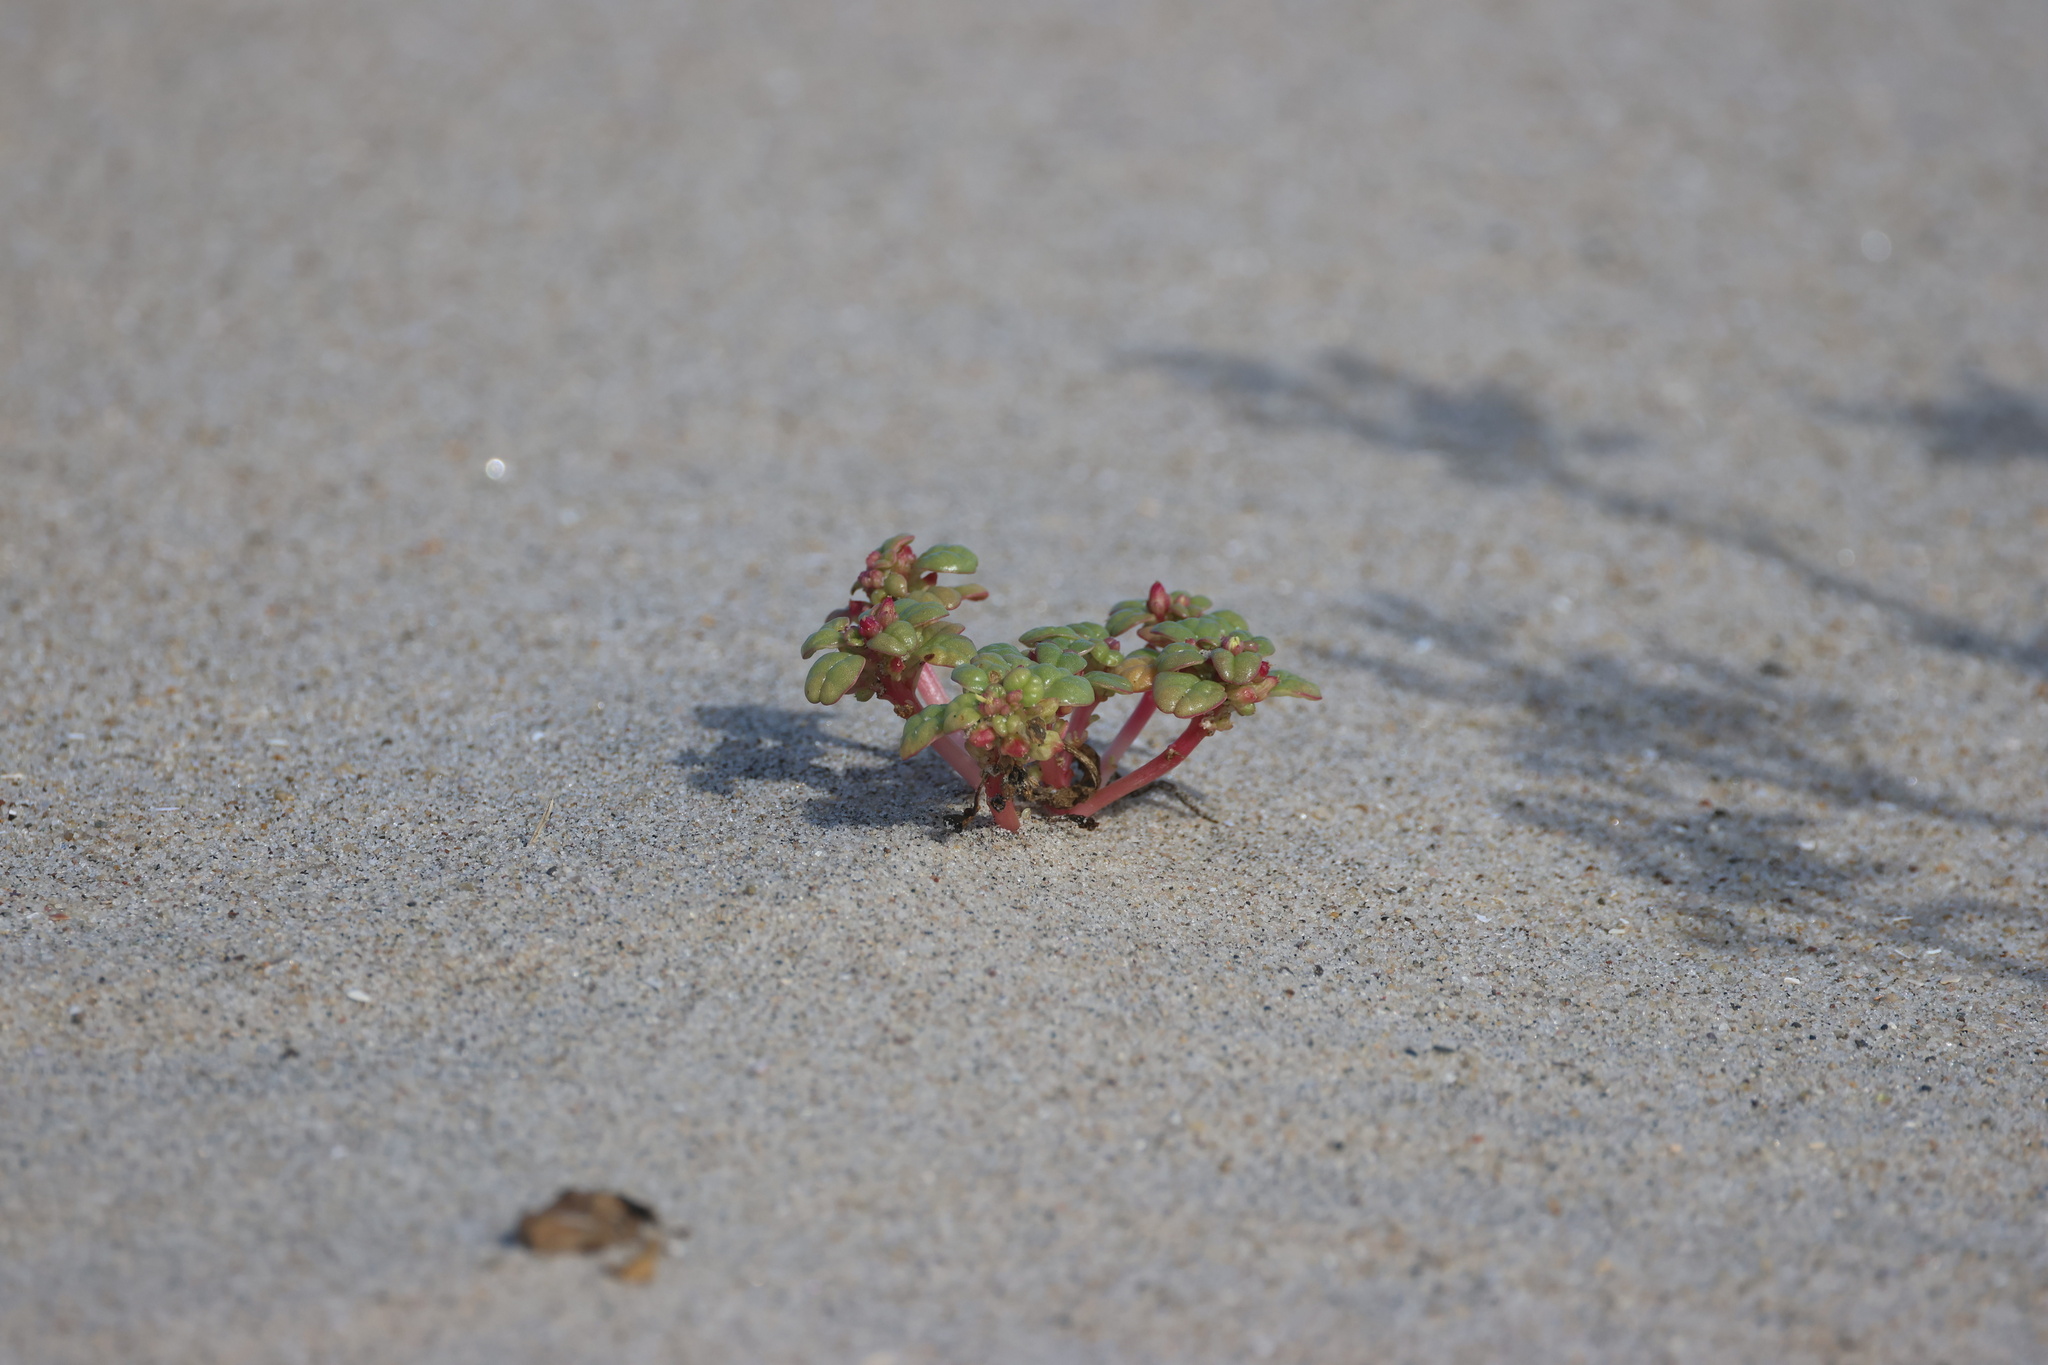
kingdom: Plantae
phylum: Tracheophyta
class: Magnoliopsida
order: Caryophyllales
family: Amaranthaceae
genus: Amaranthus
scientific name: Amaranthus pumilus
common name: Coast amaranth
